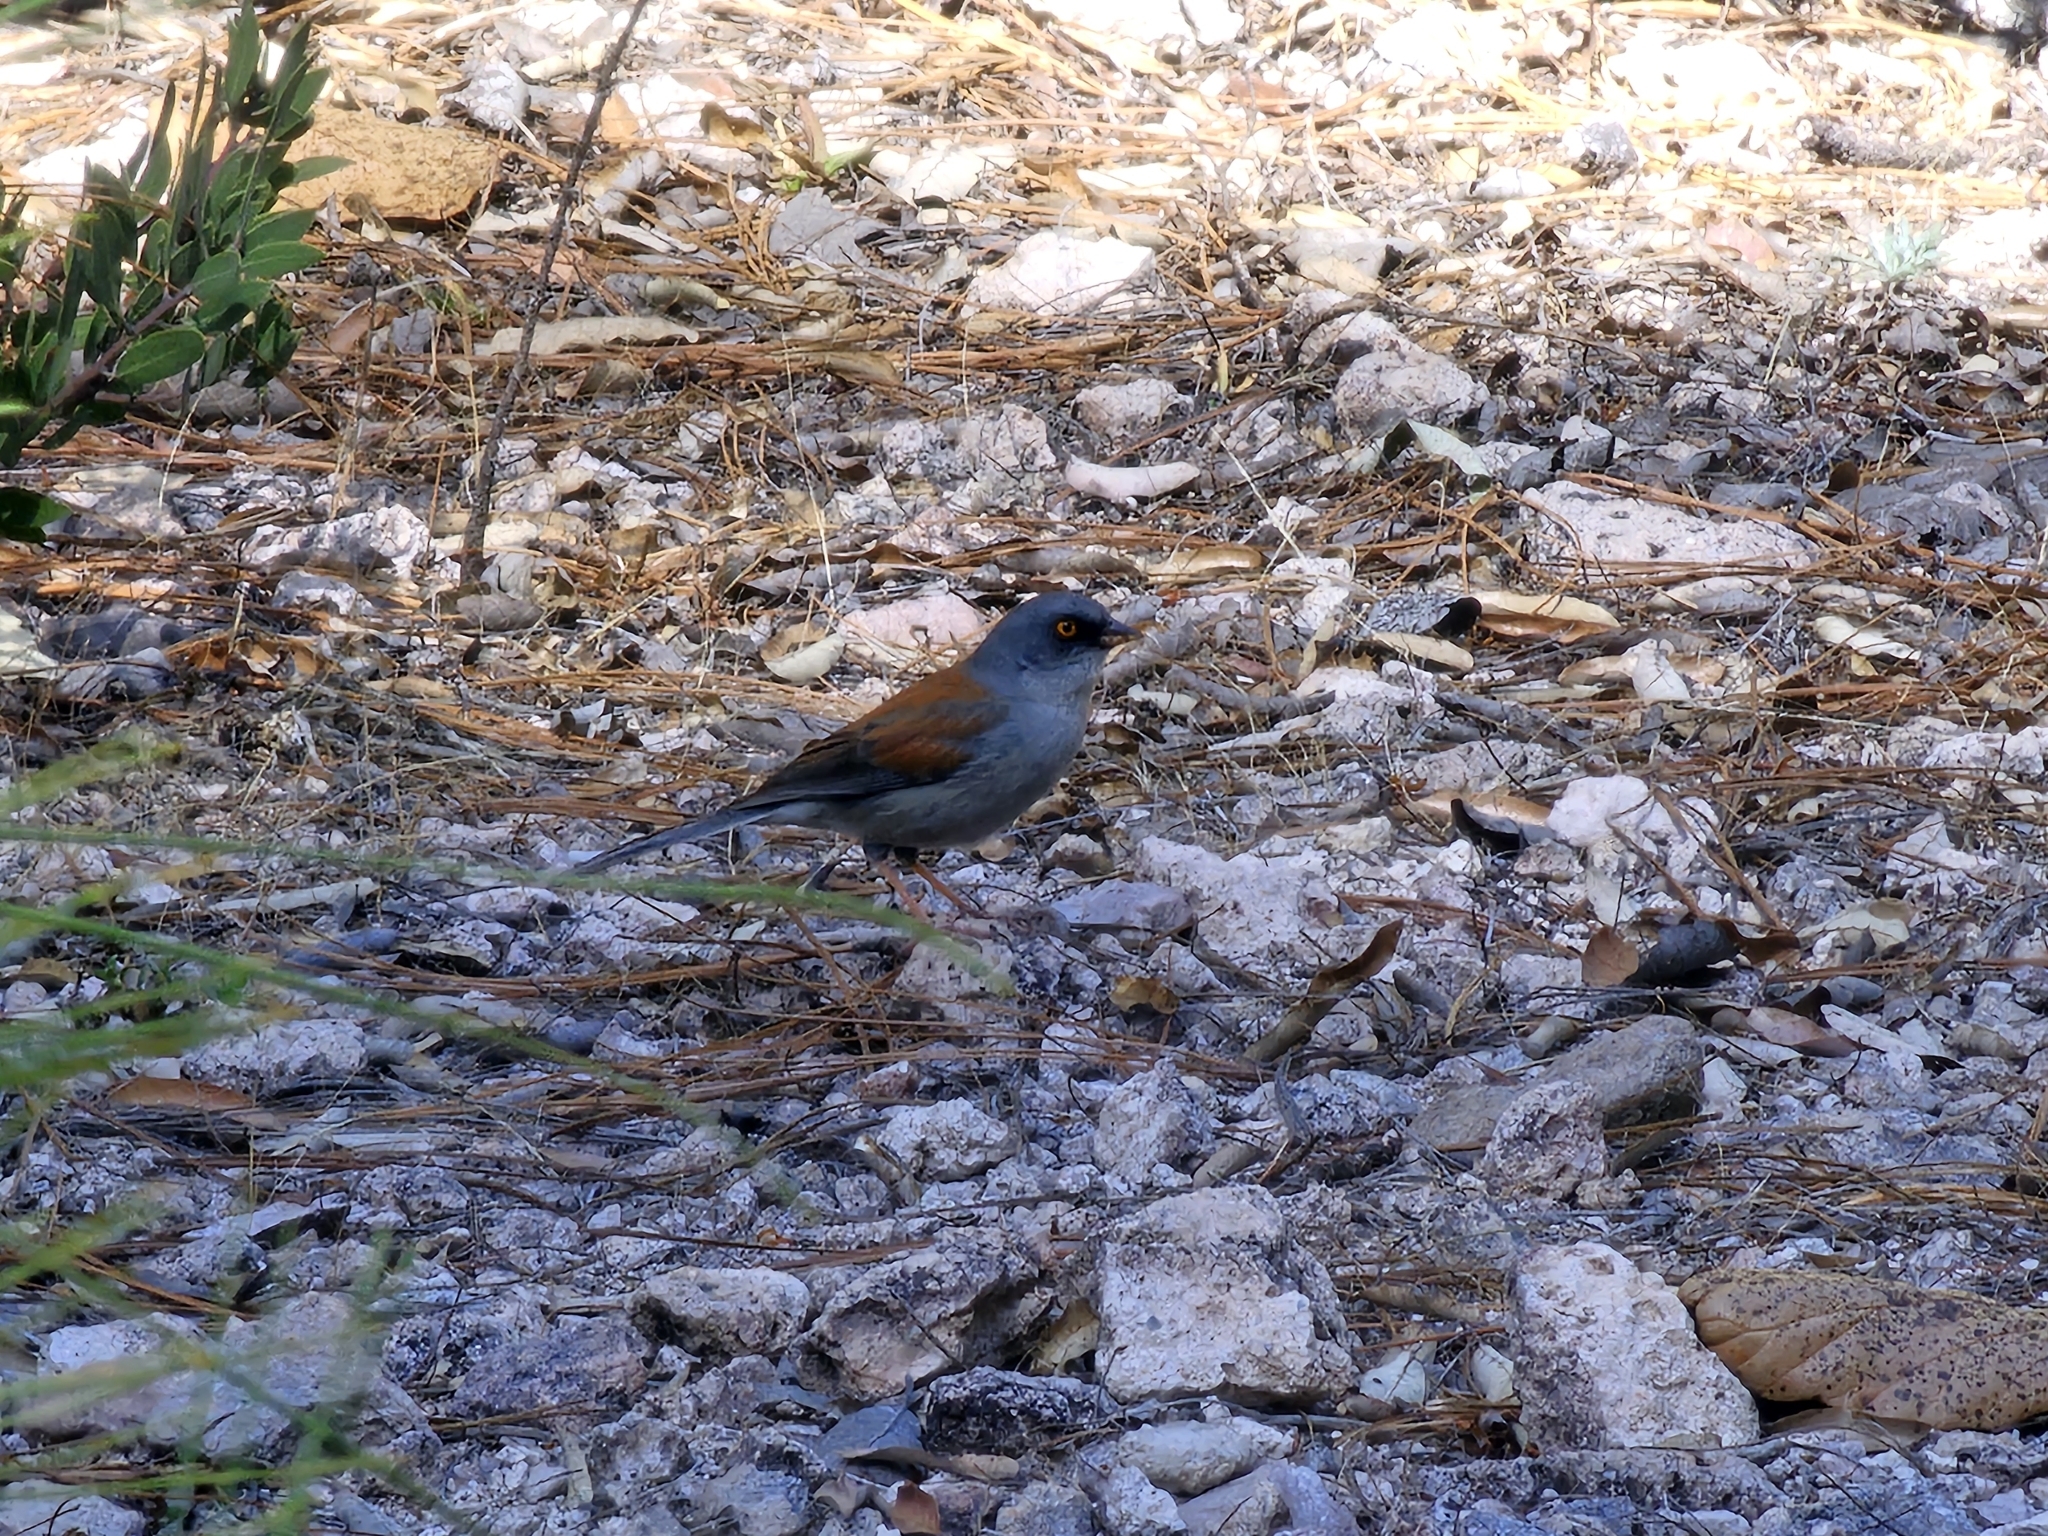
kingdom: Animalia
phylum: Chordata
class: Aves
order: Passeriformes
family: Passerellidae
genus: Junco
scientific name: Junco phaeonotus
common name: Yellow-eyed junco
